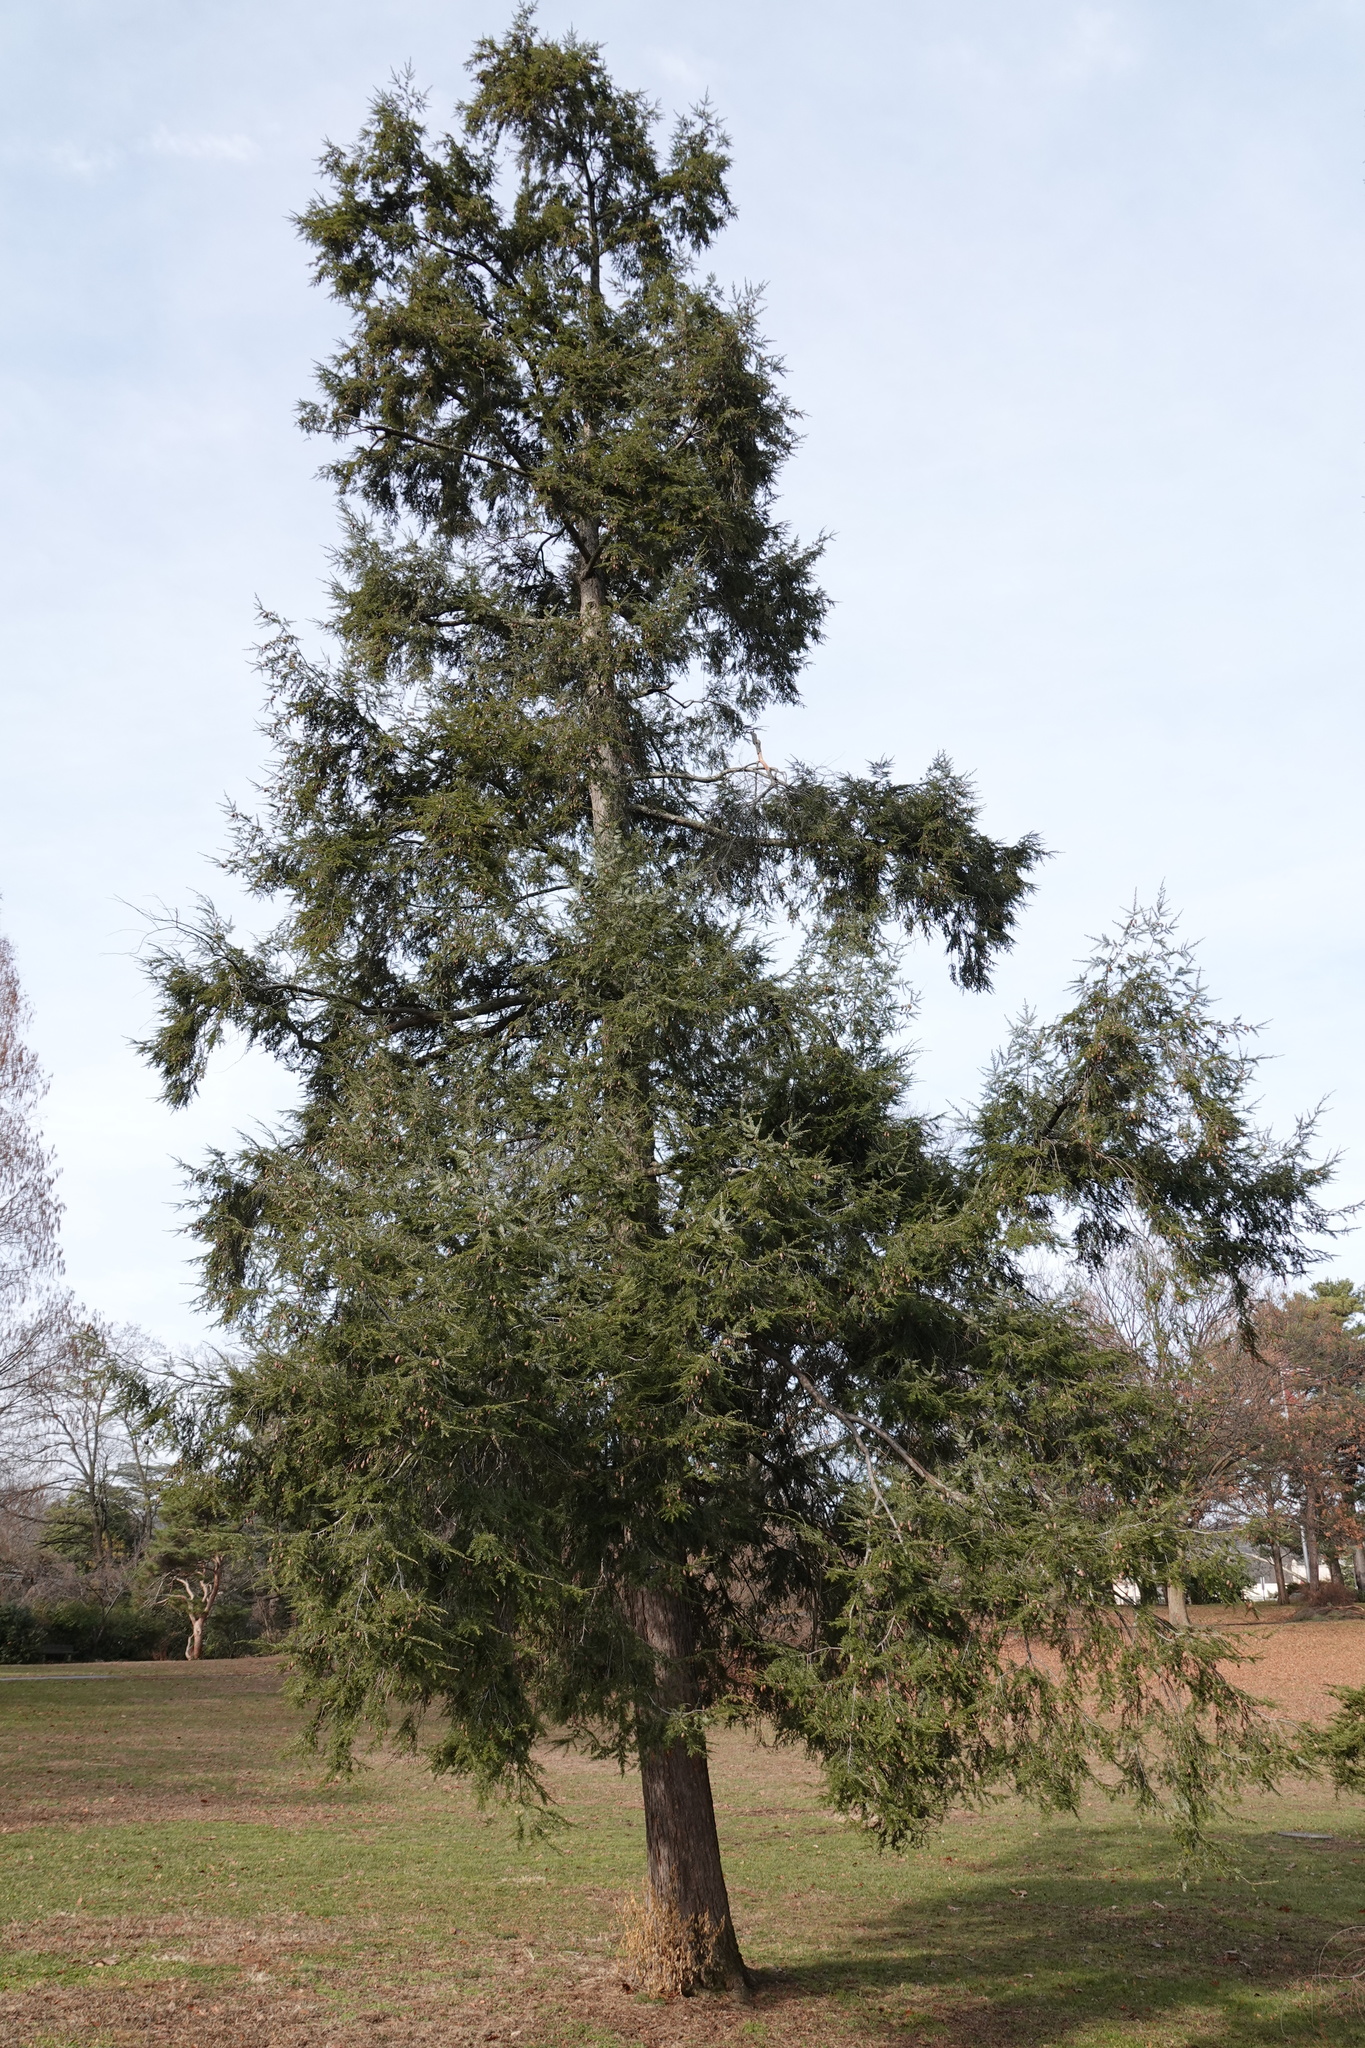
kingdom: Plantae
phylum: Tracheophyta
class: Pinopsida
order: Pinales
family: Pinaceae
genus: Tsuga
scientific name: Tsuga canadensis
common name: Eastern hemlock
